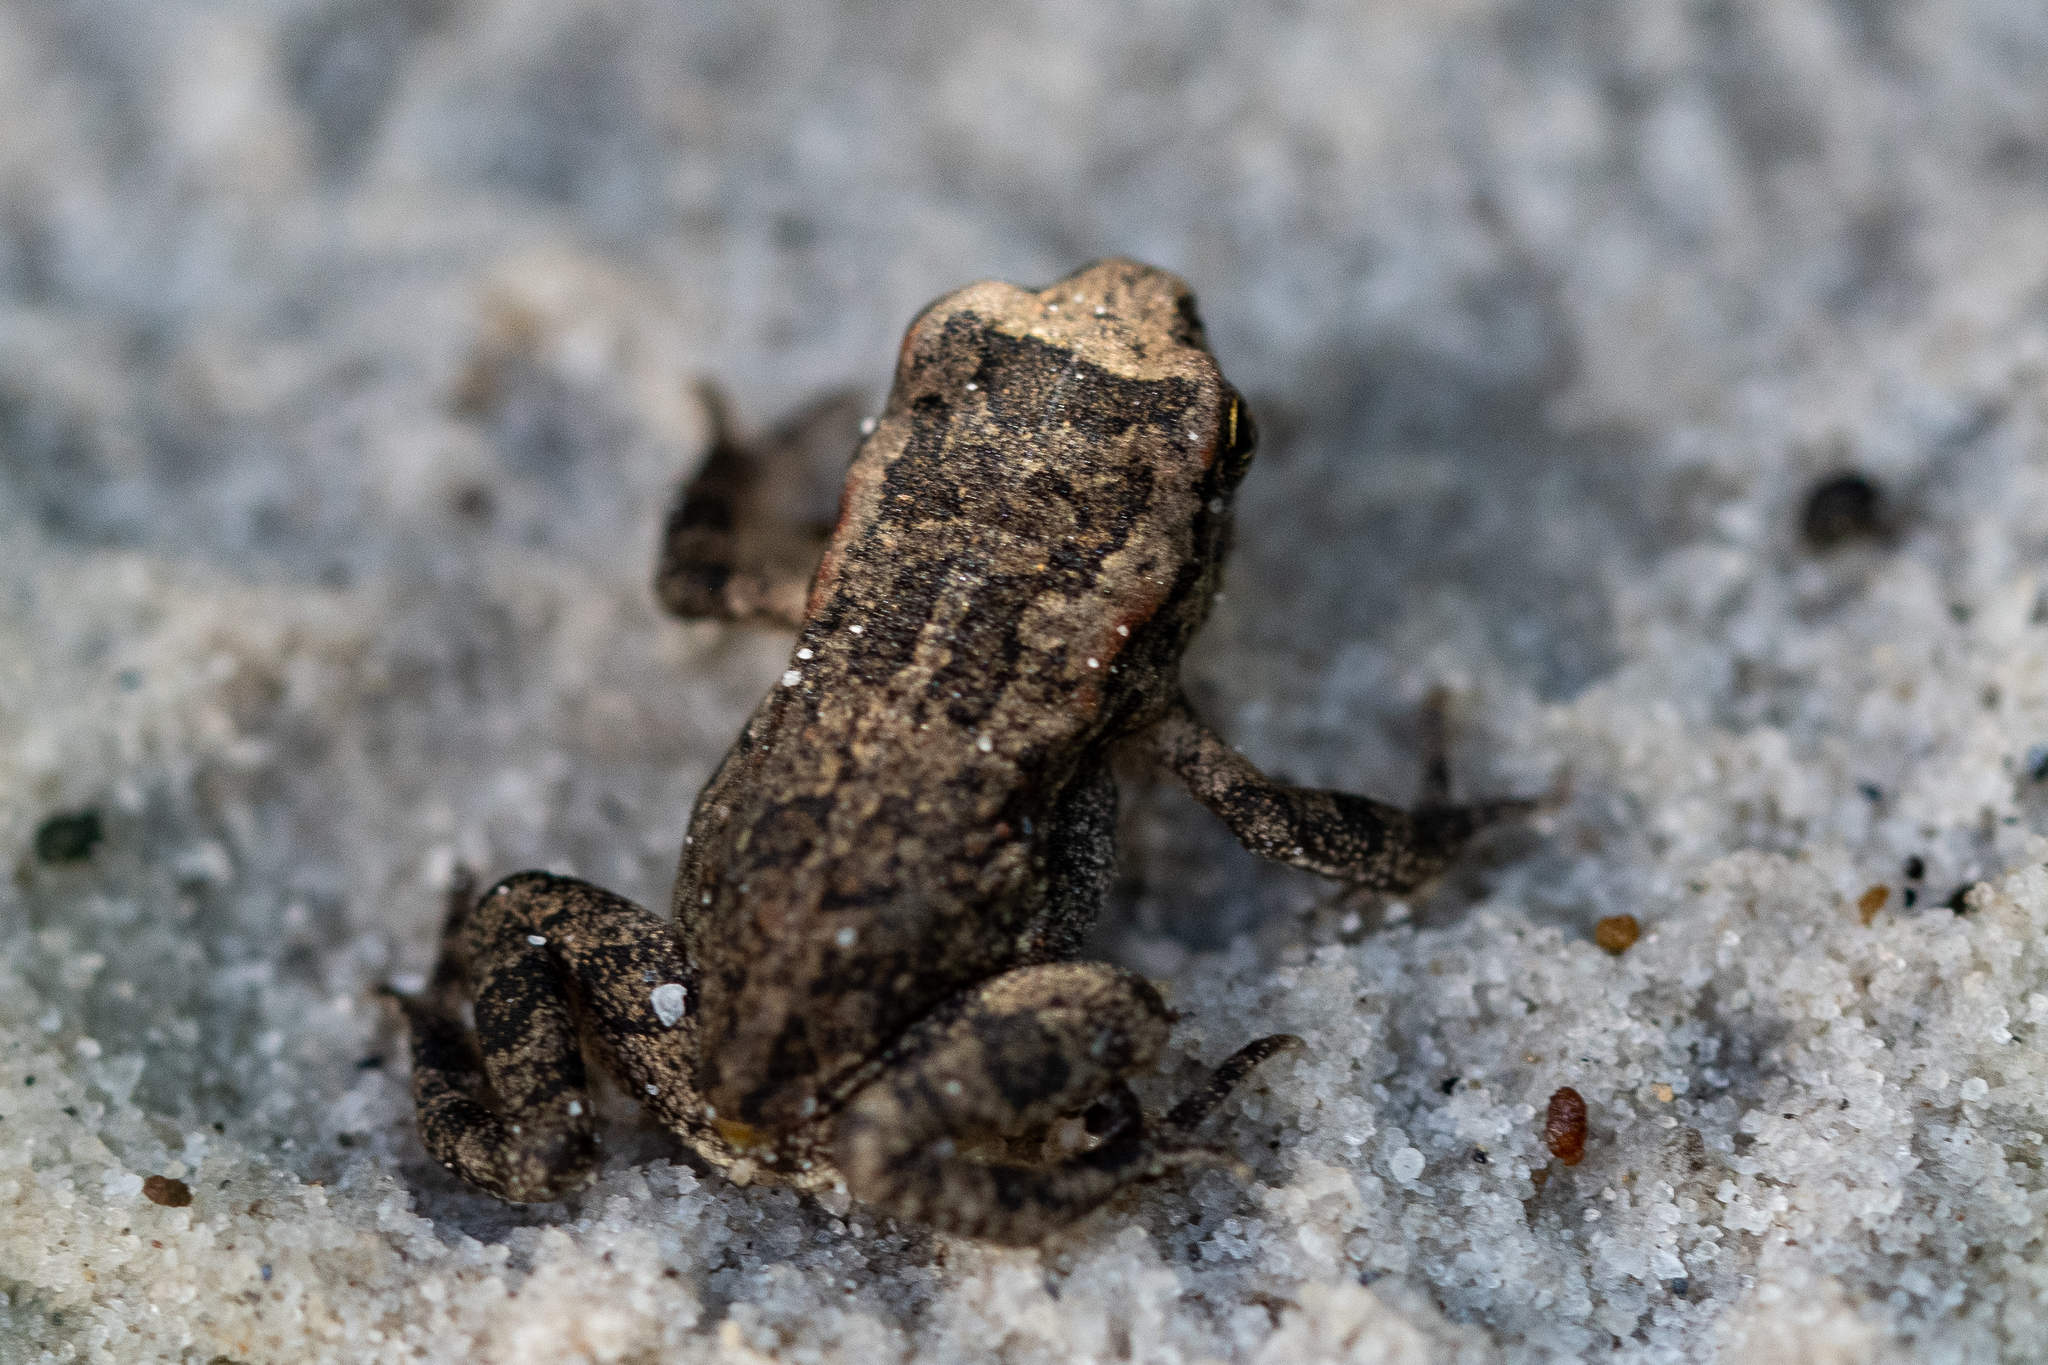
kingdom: Animalia
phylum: Chordata
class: Amphibia
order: Anura
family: Bufonidae
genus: Sclerophrys
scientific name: Sclerophrys capensis
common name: Ranger’s toad
